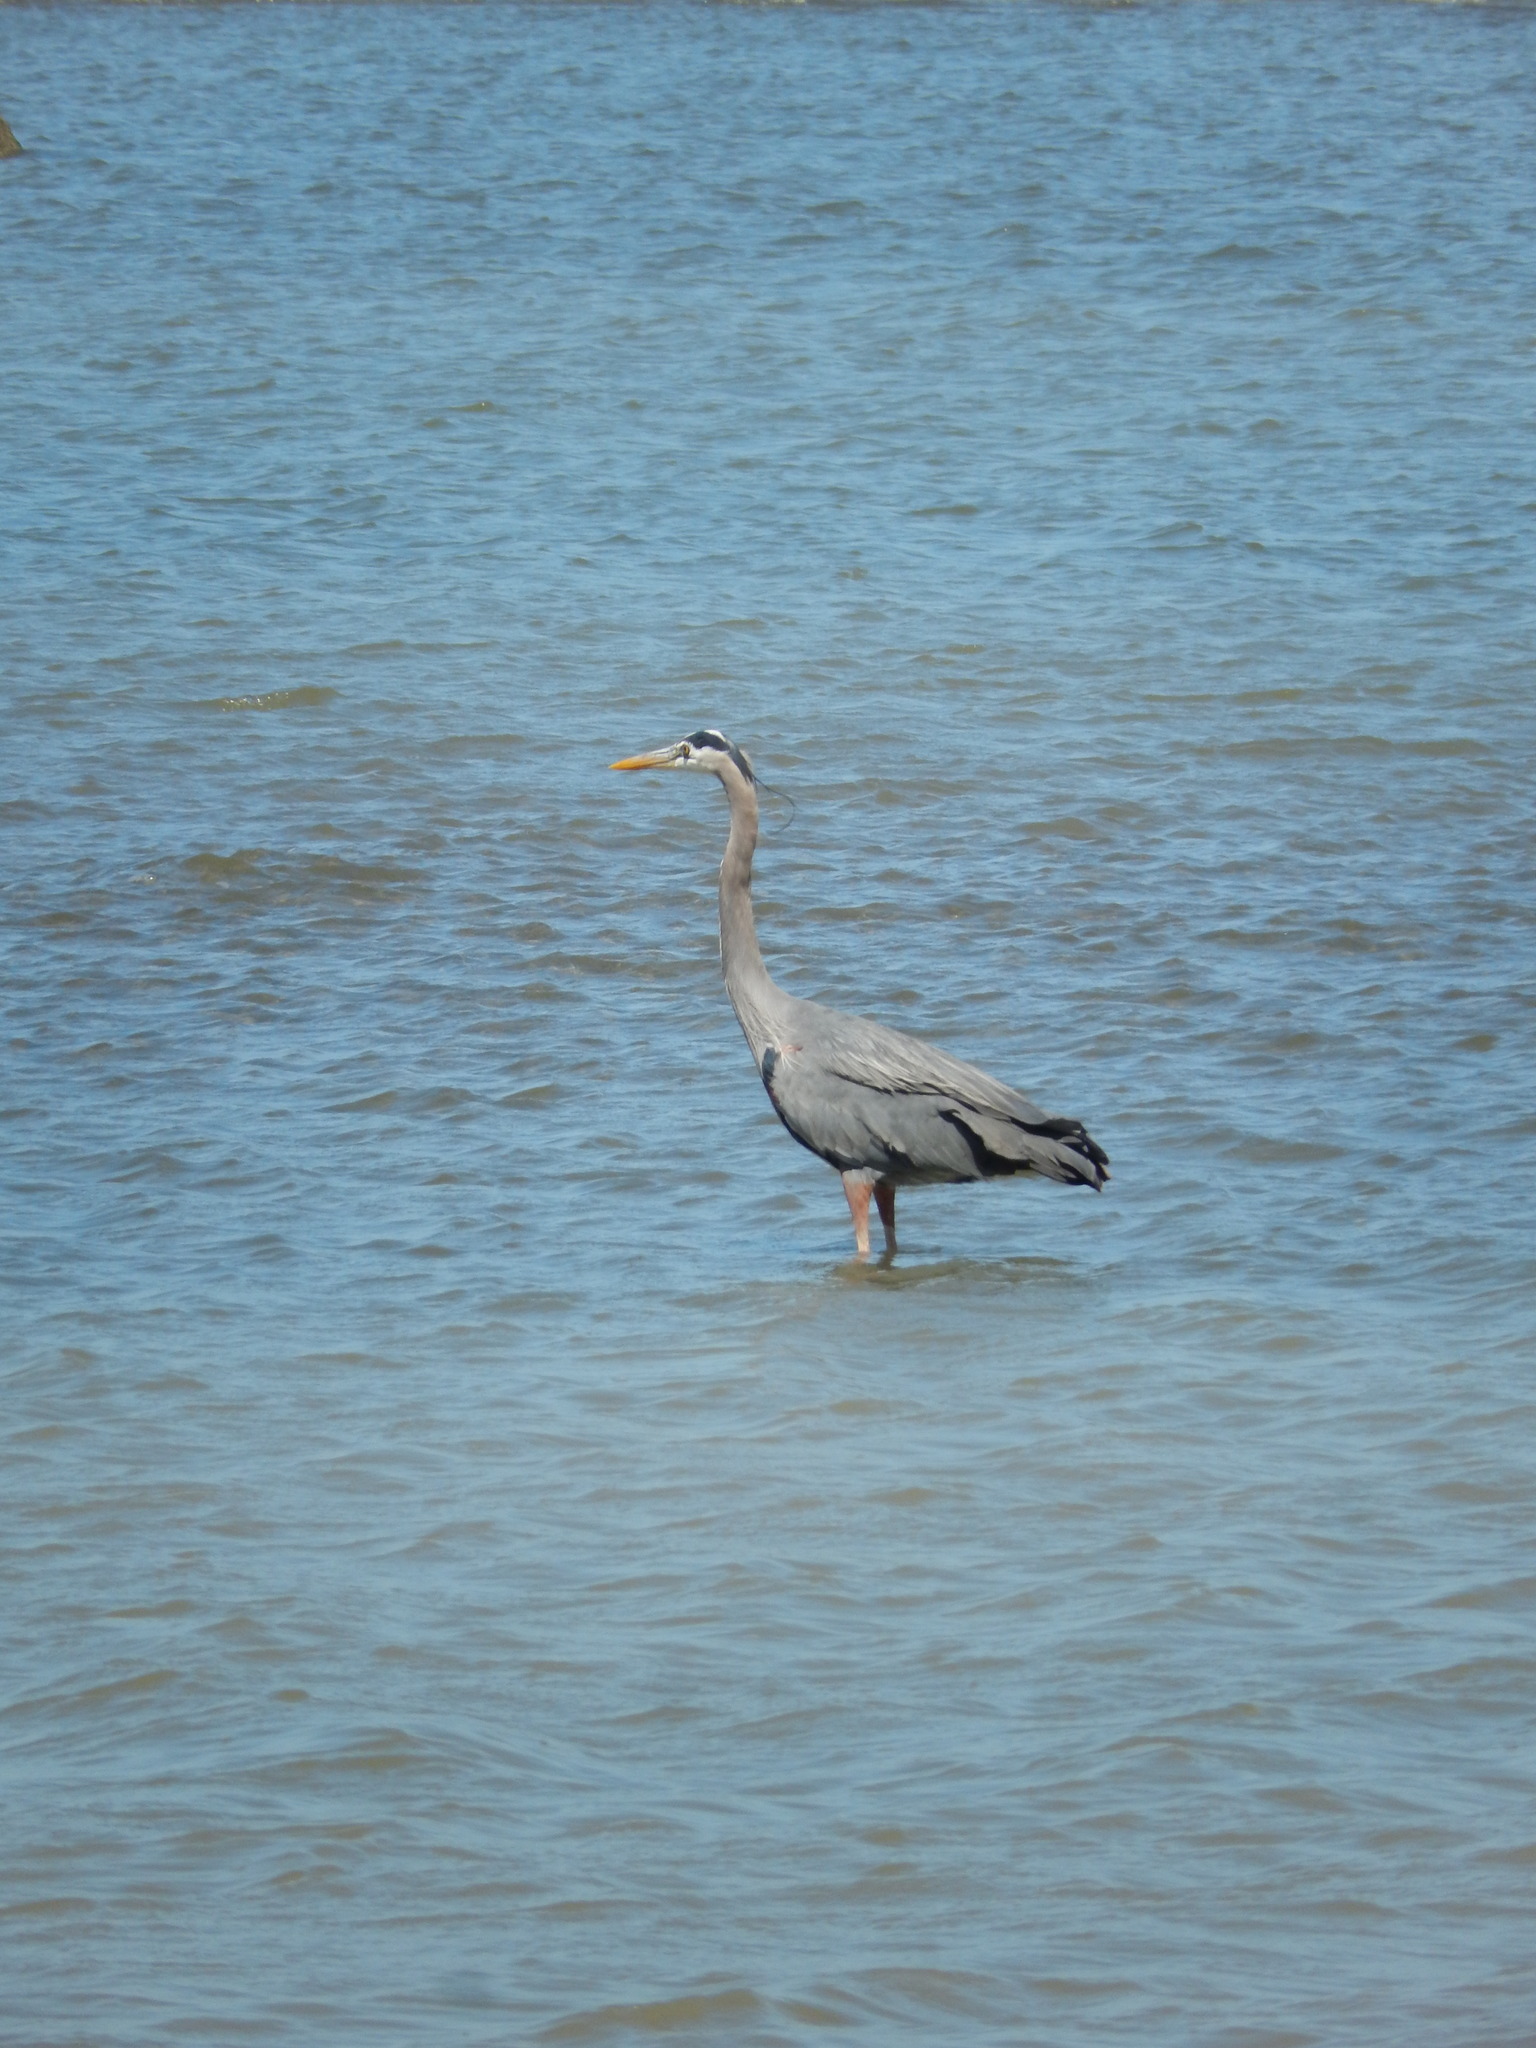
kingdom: Animalia
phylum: Chordata
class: Aves
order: Pelecaniformes
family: Ardeidae
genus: Ardea
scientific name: Ardea herodias
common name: Great blue heron
